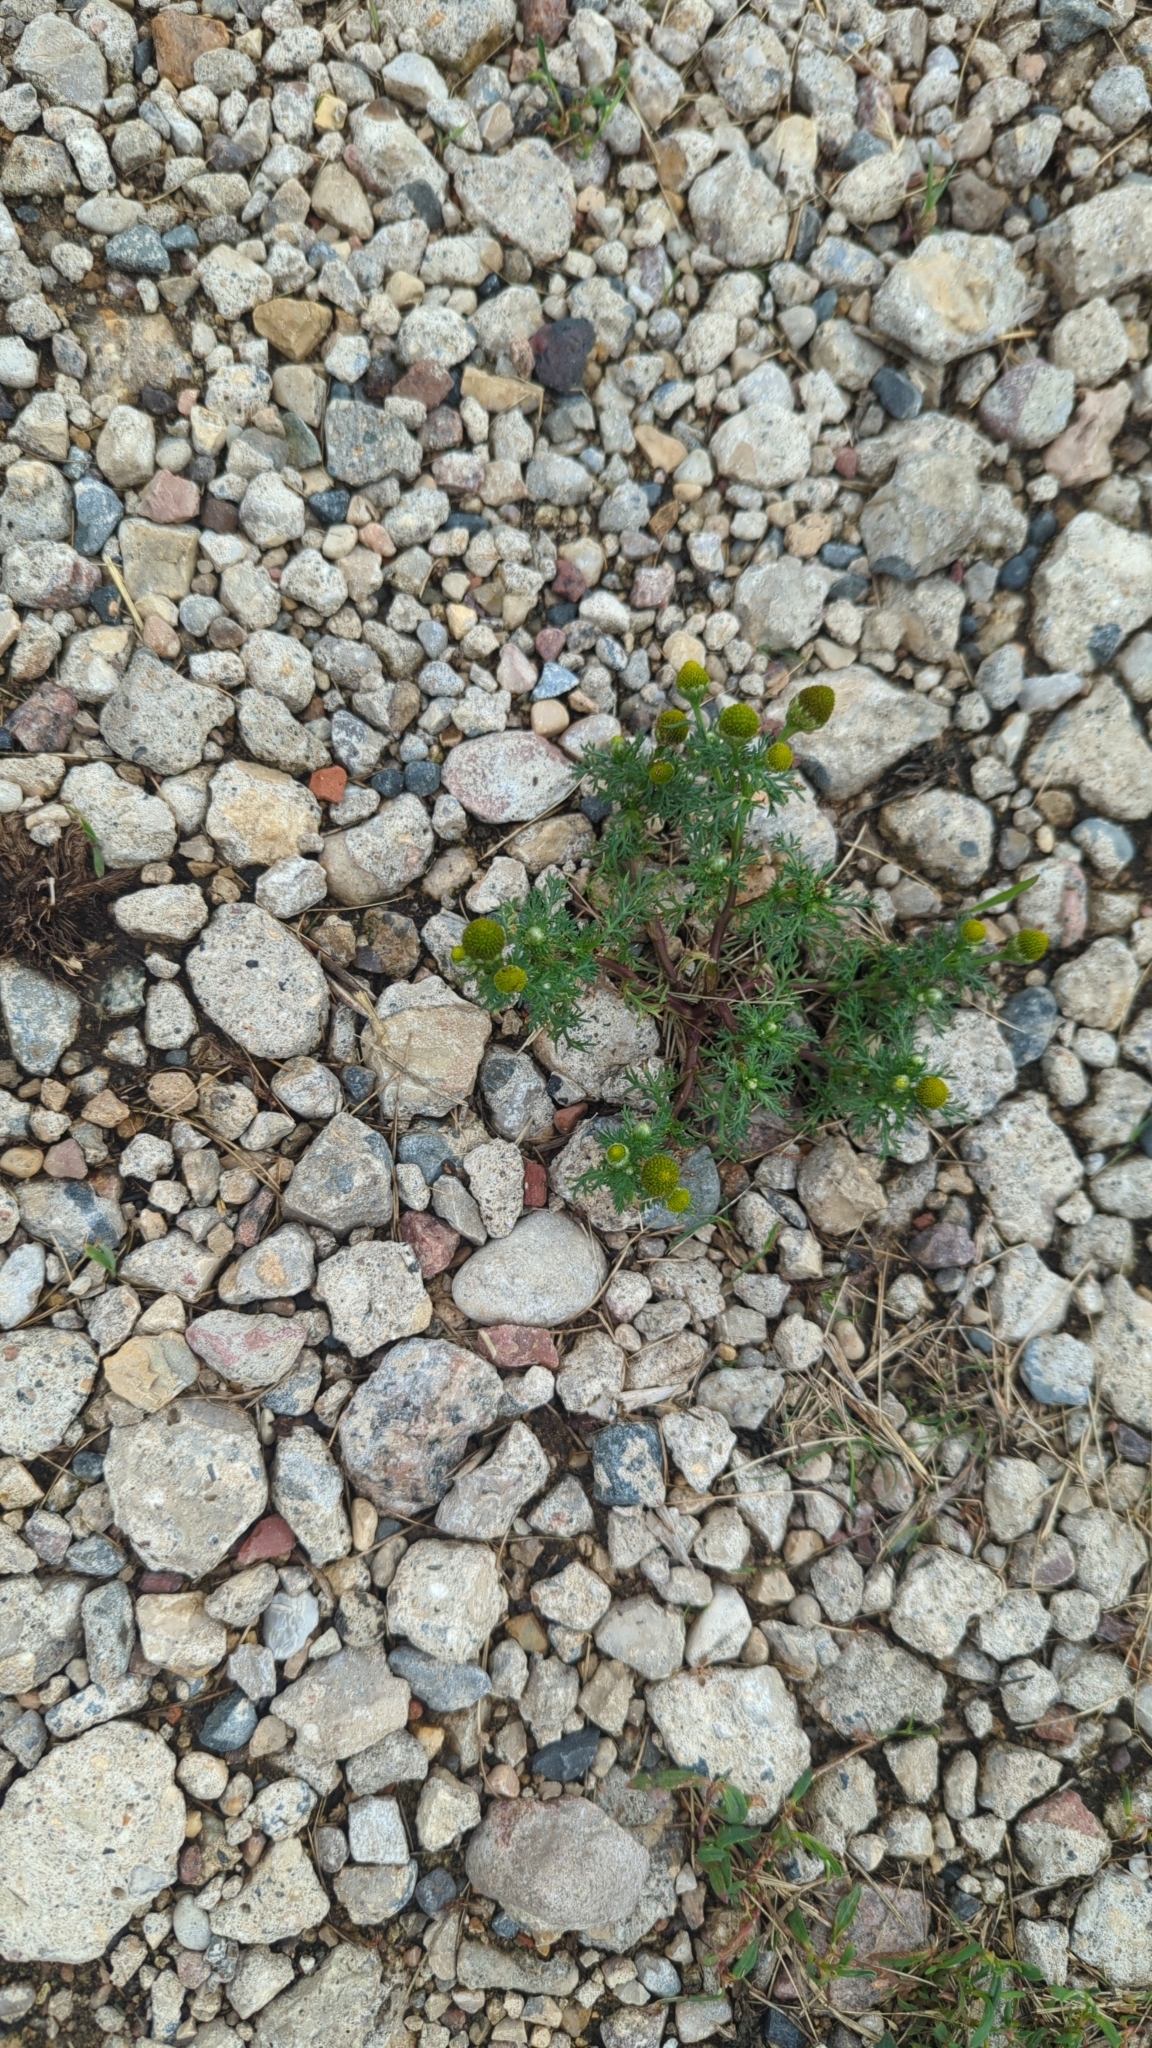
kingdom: Plantae
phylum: Tracheophyta
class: Magnoliopsida
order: Asterales
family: Asteraceae
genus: Matricaria
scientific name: Matricaria discoidea
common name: Disc mayweed
